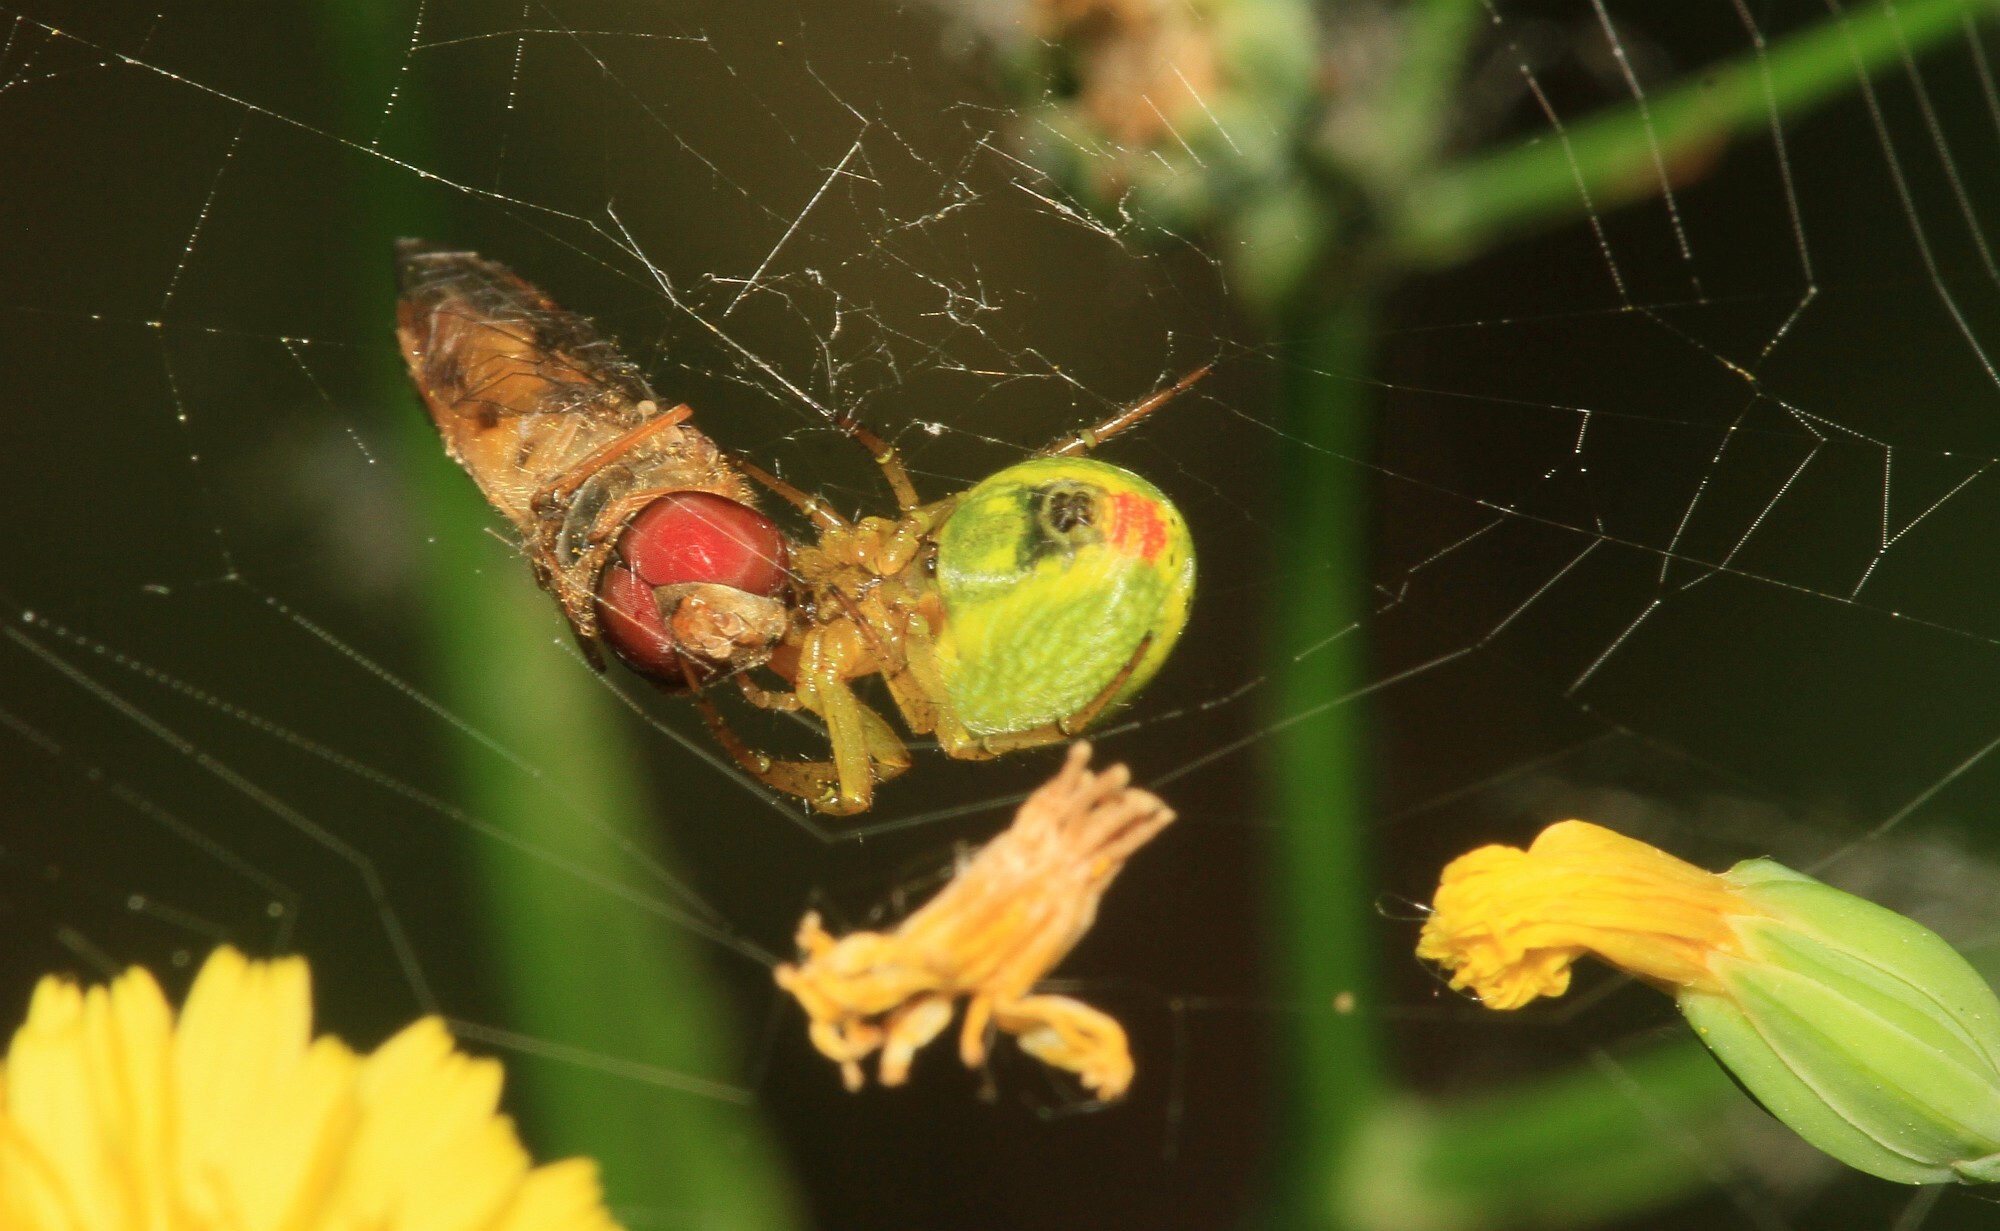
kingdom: Animalia
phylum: Arthropoda
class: Arachnida
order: Araneae
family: Araneidae
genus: Araniella
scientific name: Araniella cucurbitina
